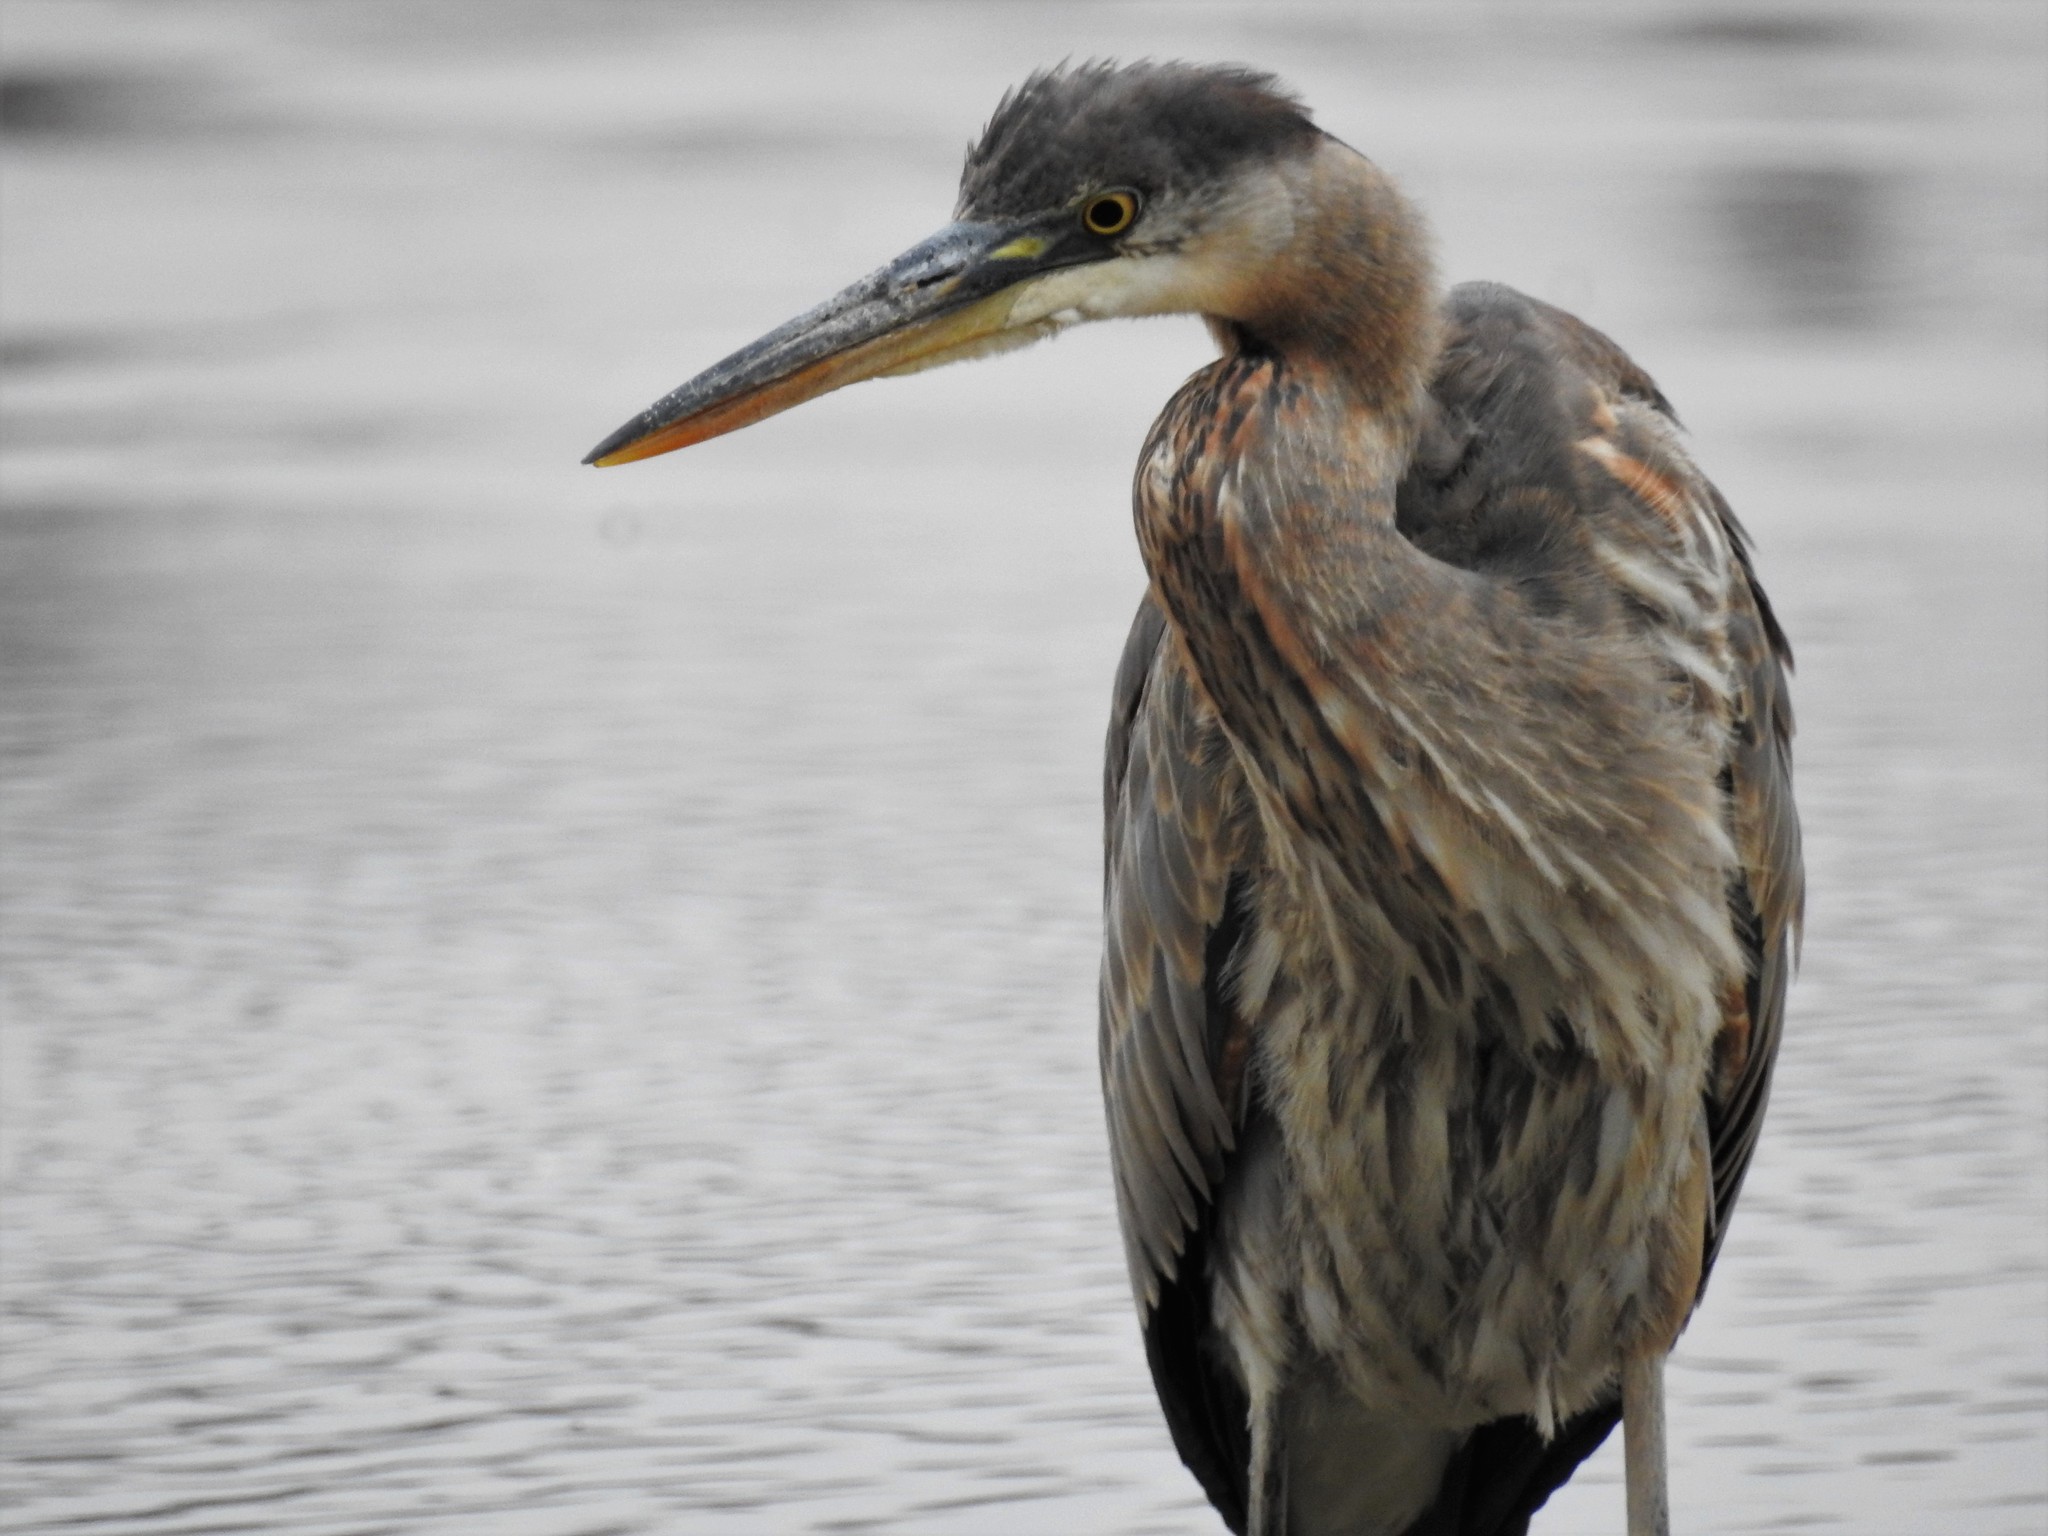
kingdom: Animalia
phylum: Chordata
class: Aves
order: Pelecaniformes
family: Ardeidae
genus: Ardea
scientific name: Ardea herodias
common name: Great blue heron
